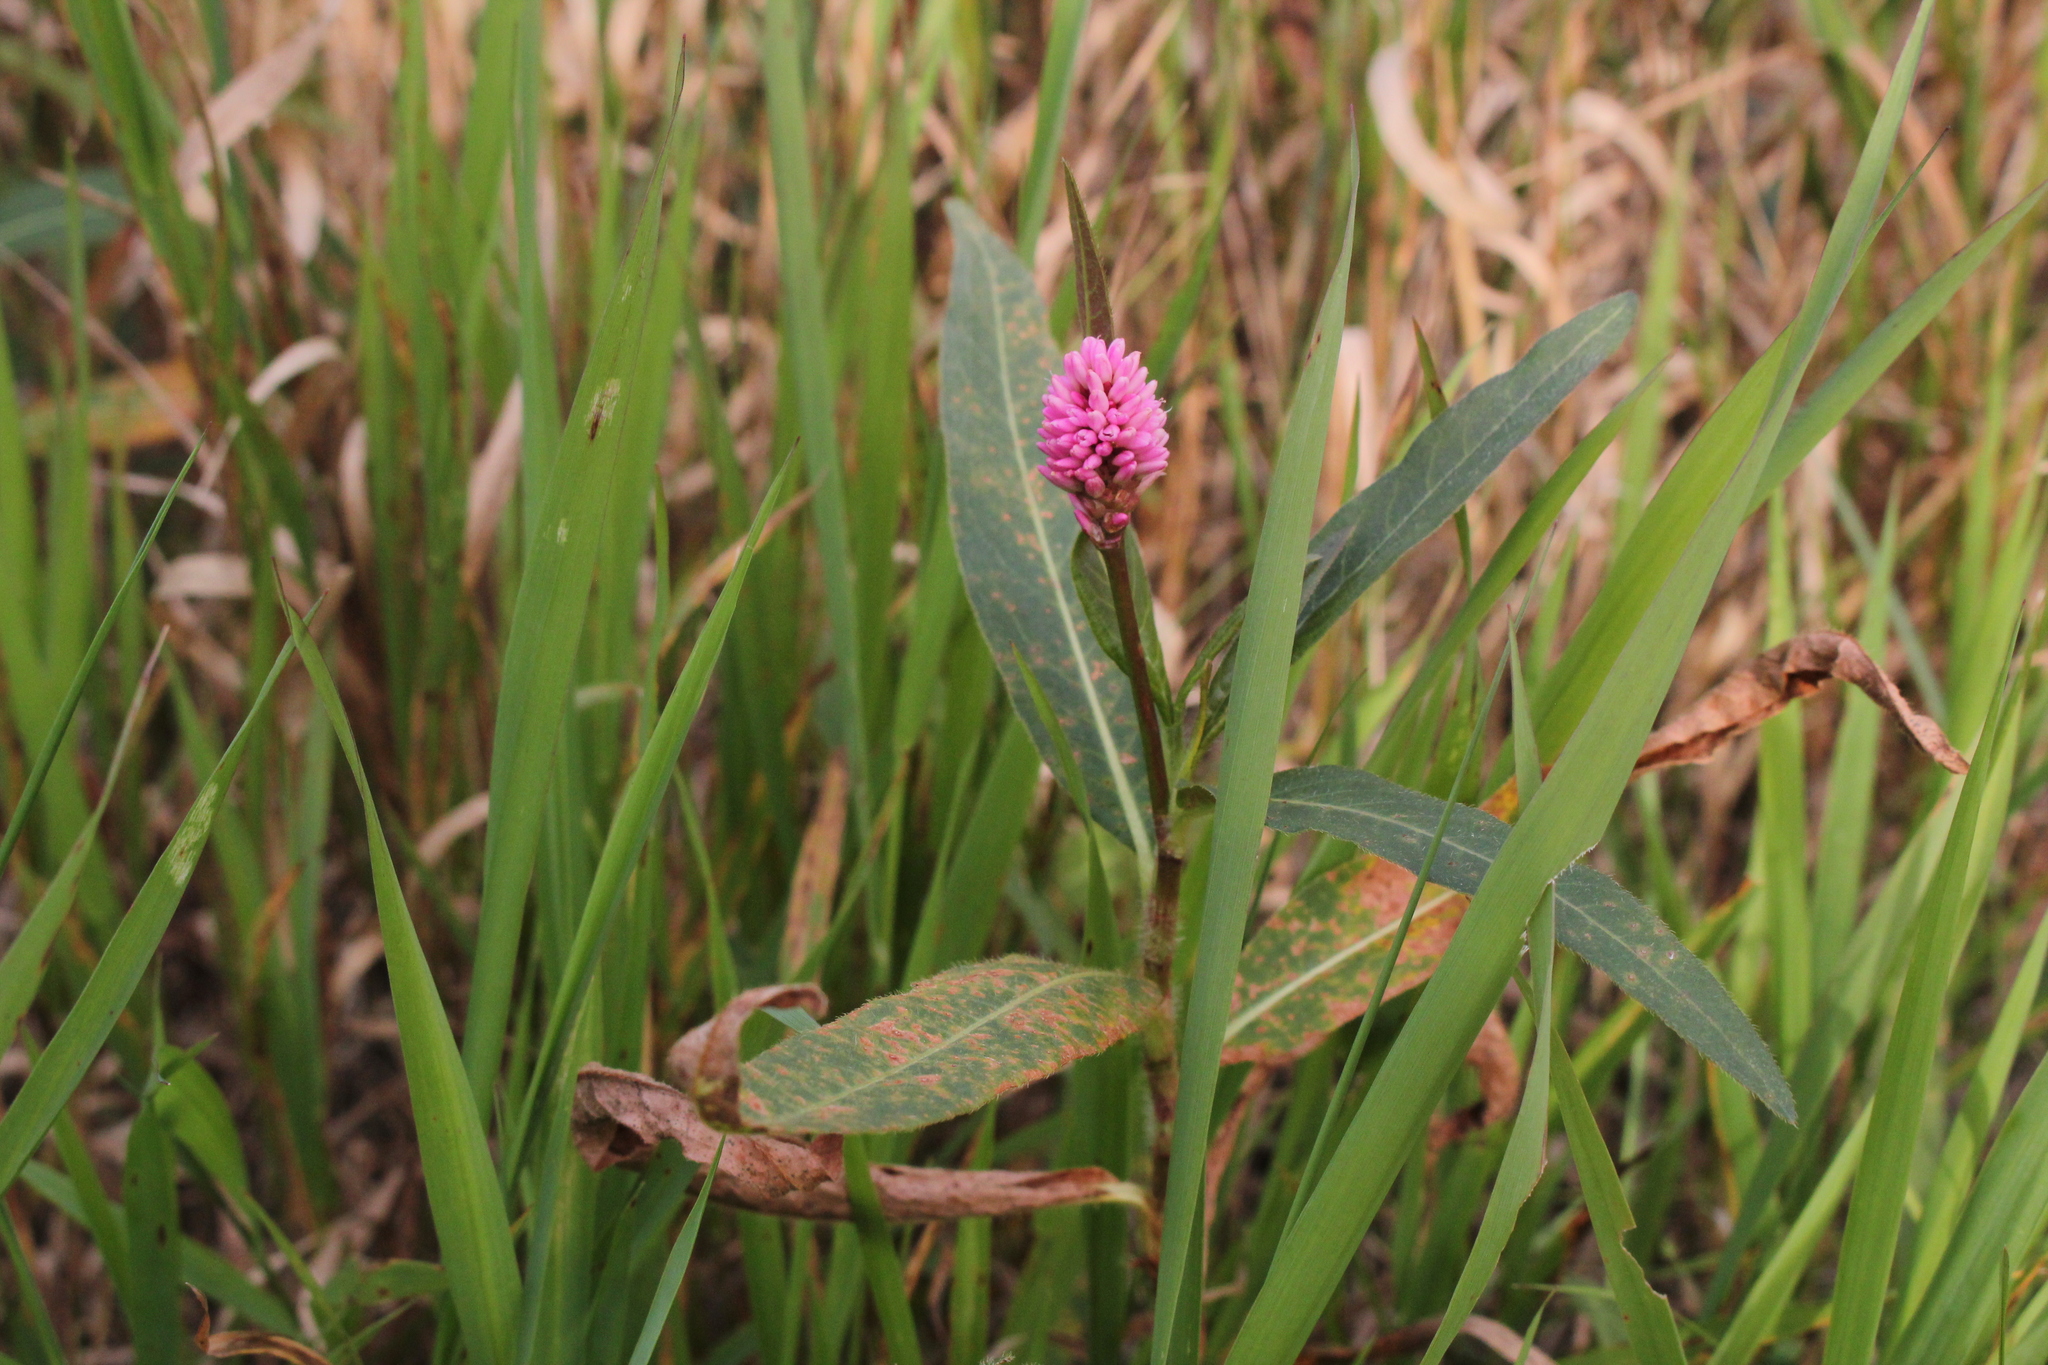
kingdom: Plantae
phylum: Tracheophyta
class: Magnoliopsida
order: Caryophyllales
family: Polygonaceae
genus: Persicaria
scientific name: Persicaria amphibia
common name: Amphibious bistort
